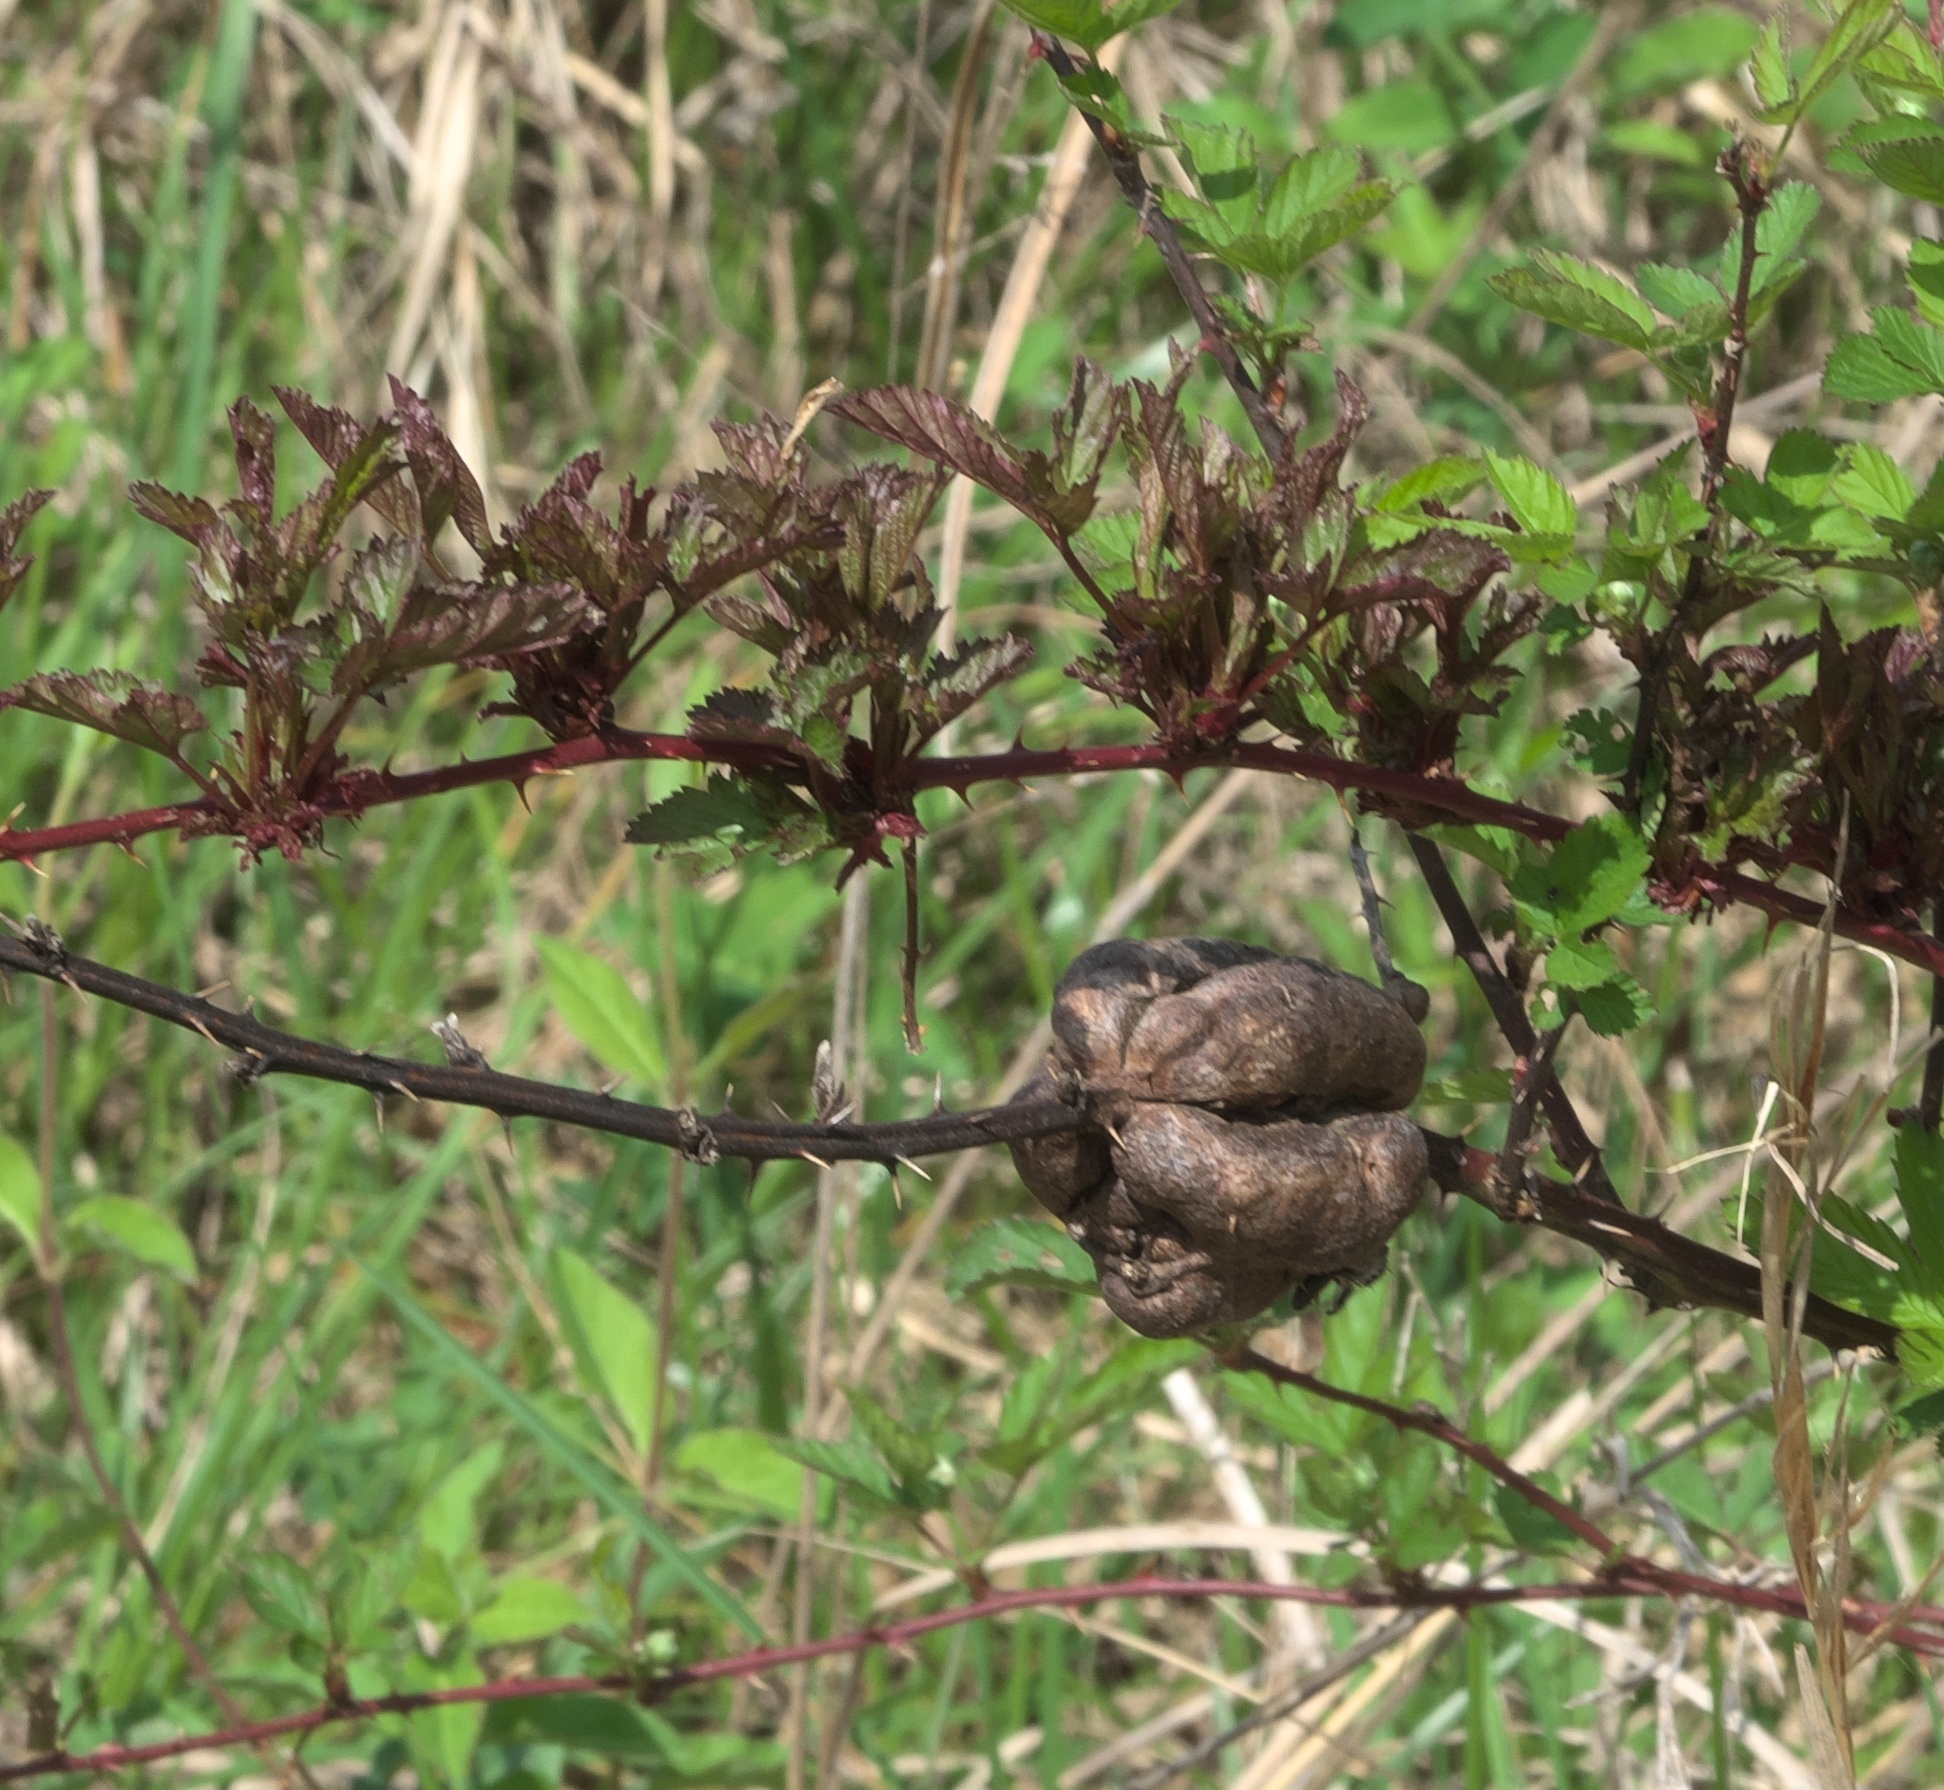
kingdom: Animalia
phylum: Arthropoda
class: Insecta
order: Hymenoptera
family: Cynipidae
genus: Diastrophus
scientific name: Diastrophus
